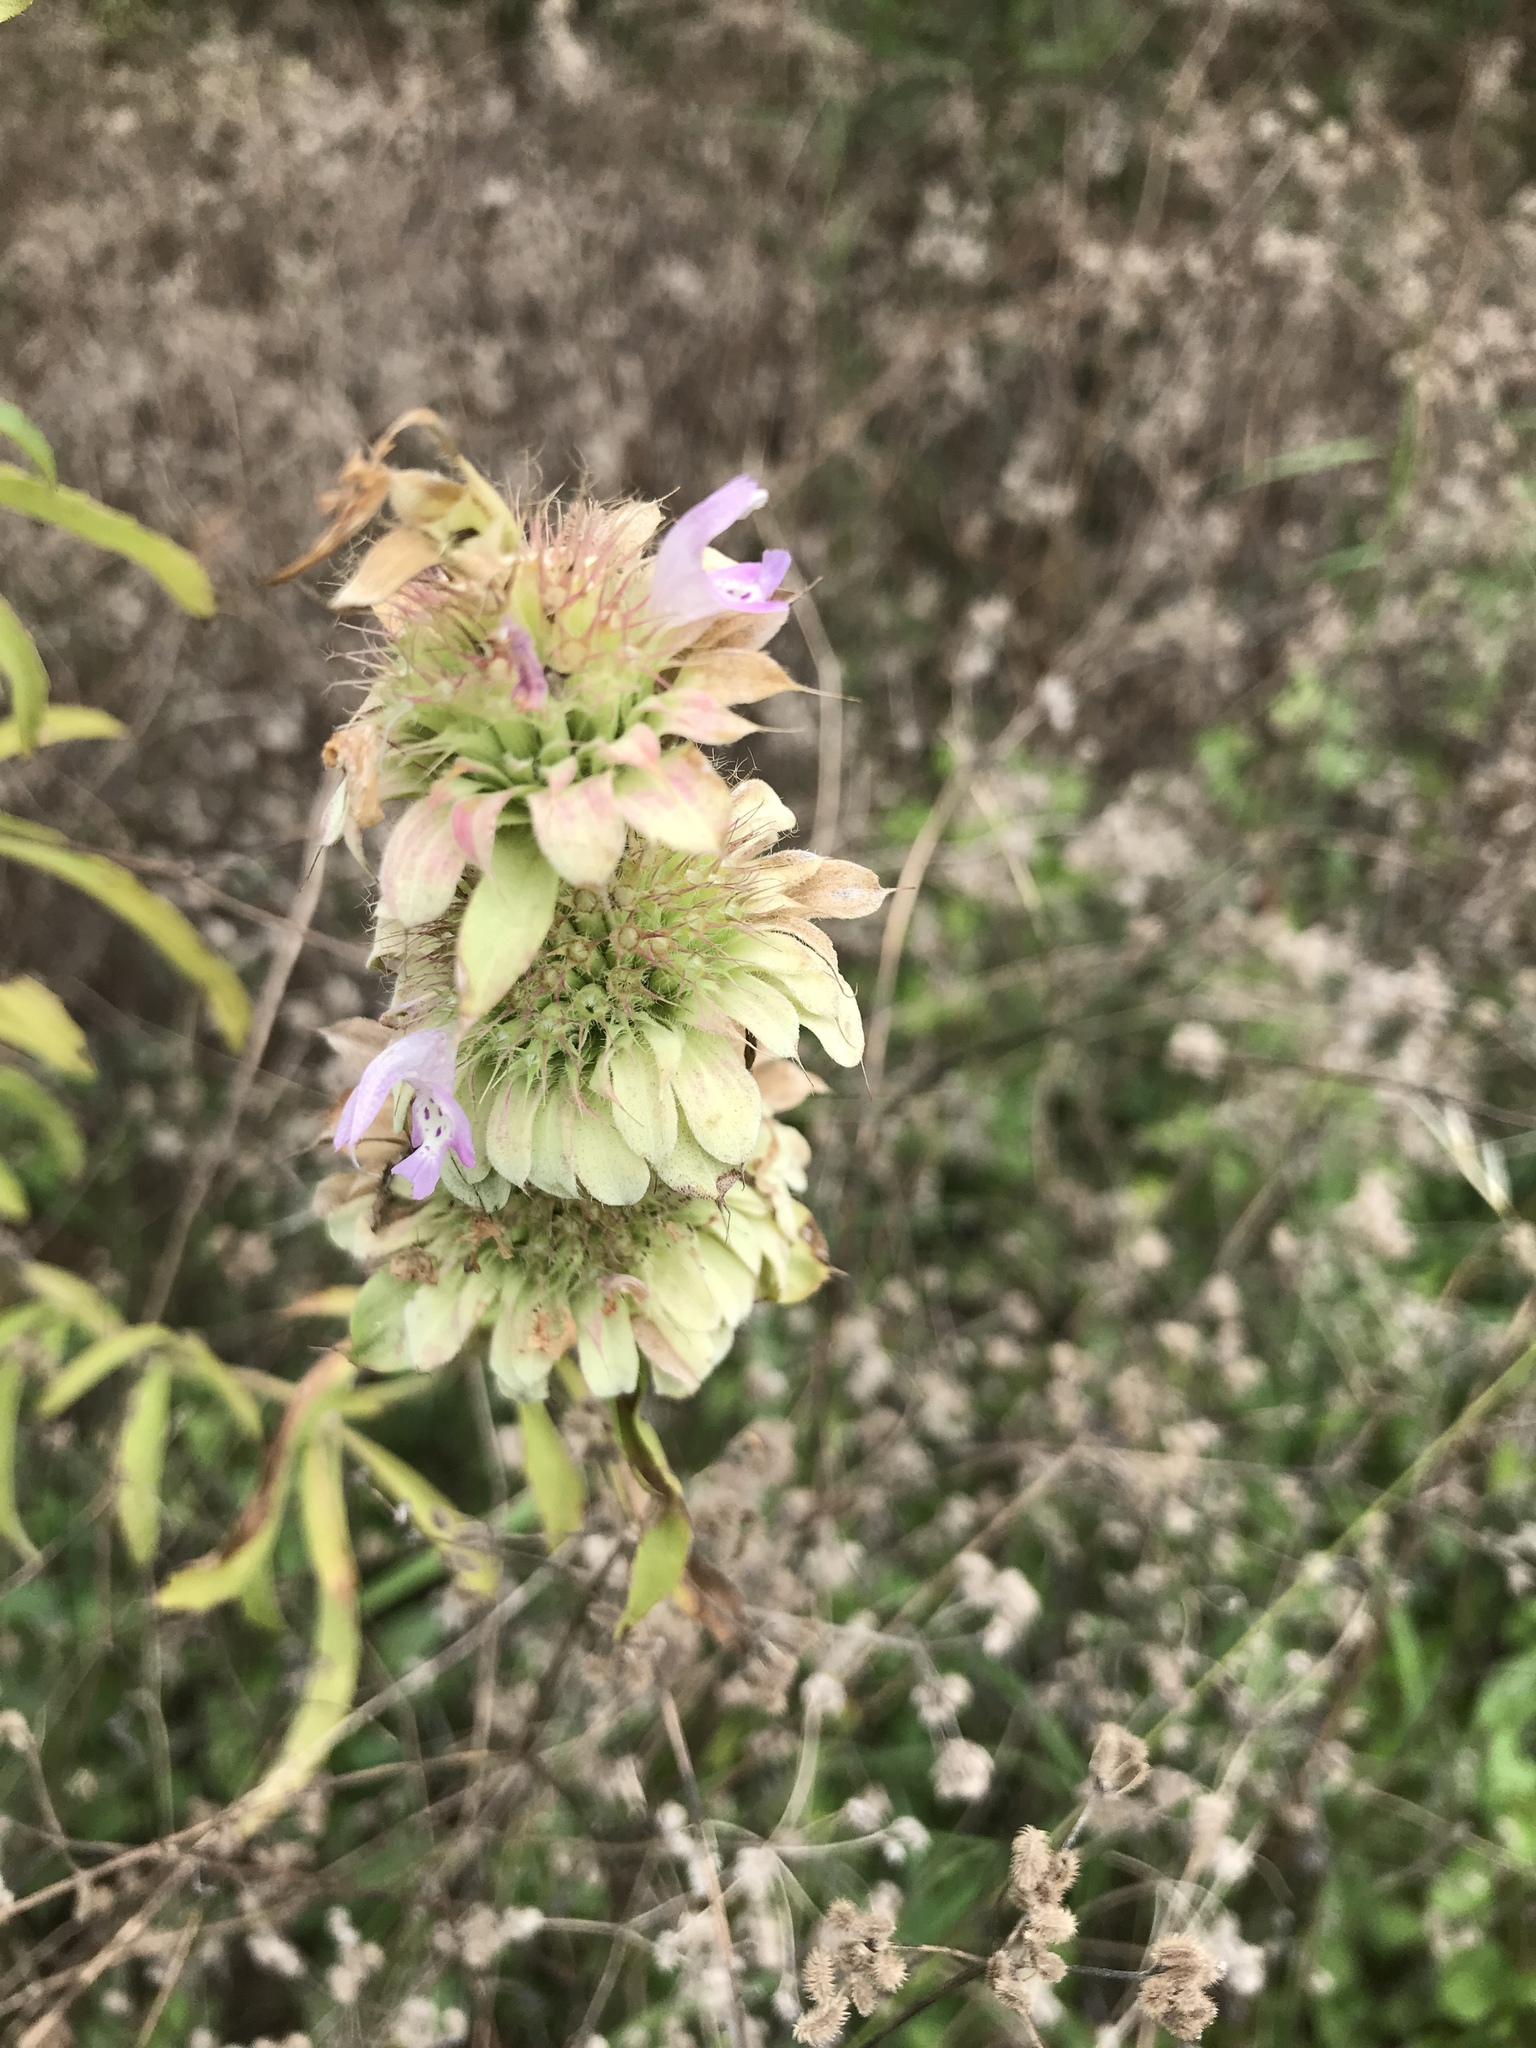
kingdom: Plantae
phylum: Tracheophyta
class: Magnoliopsida
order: Lamiales
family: Lamiaceae
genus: Monarda
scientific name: Monarda citriodora
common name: Lemon beebalm
